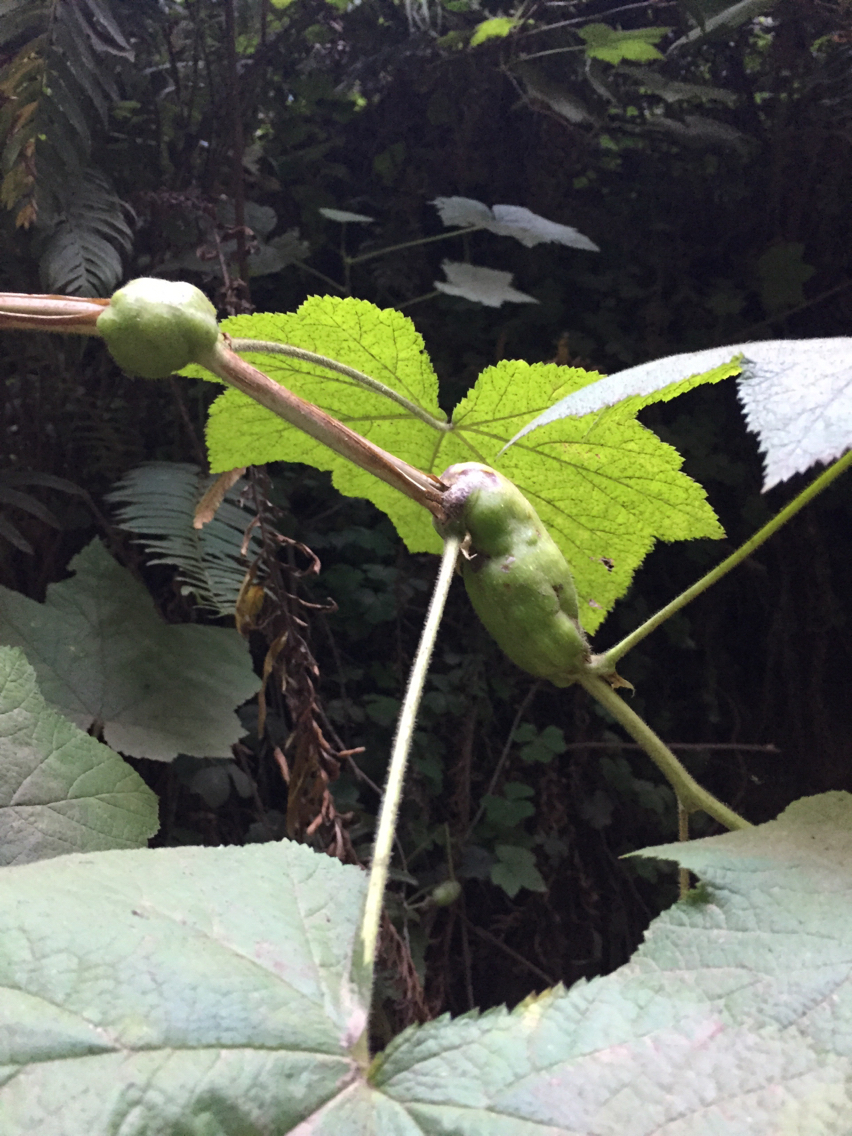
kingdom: Animalia
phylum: Arthropoda
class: Insecta
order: Hymenoptera
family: Cynipidae
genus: Diastrophus
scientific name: Diastrophus
